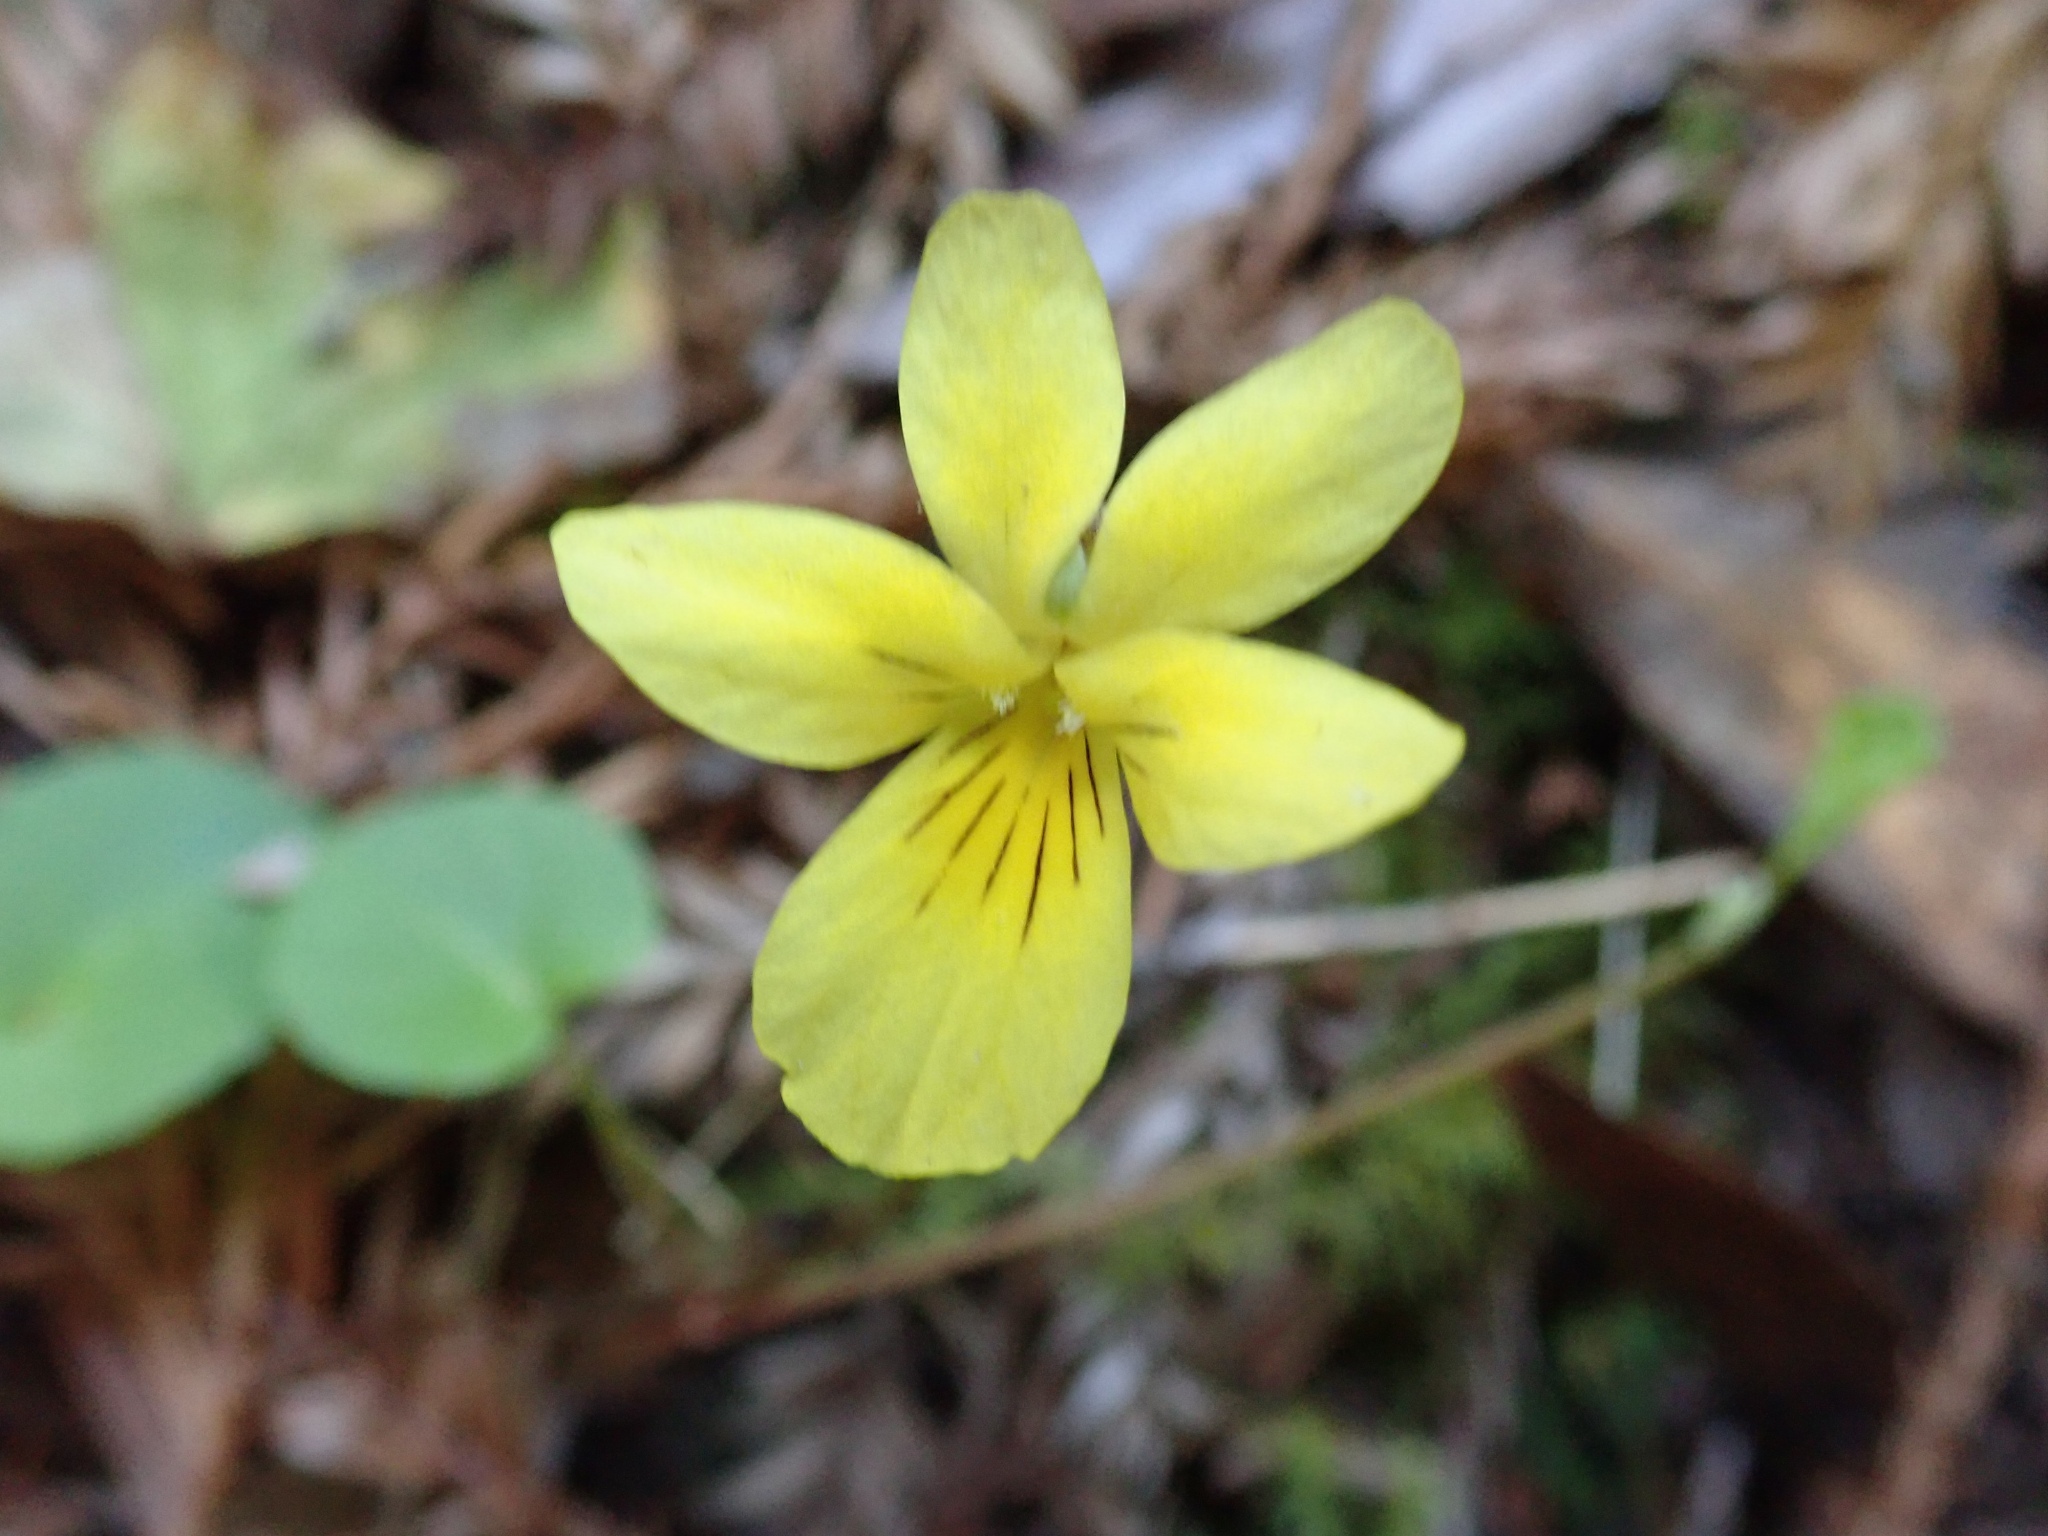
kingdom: Plantae
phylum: Tracheophyta
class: Magnoliopsida
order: Malpighiales
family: Violaceae
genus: Viola
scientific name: Viola sempervirens
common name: Evergreen violet
